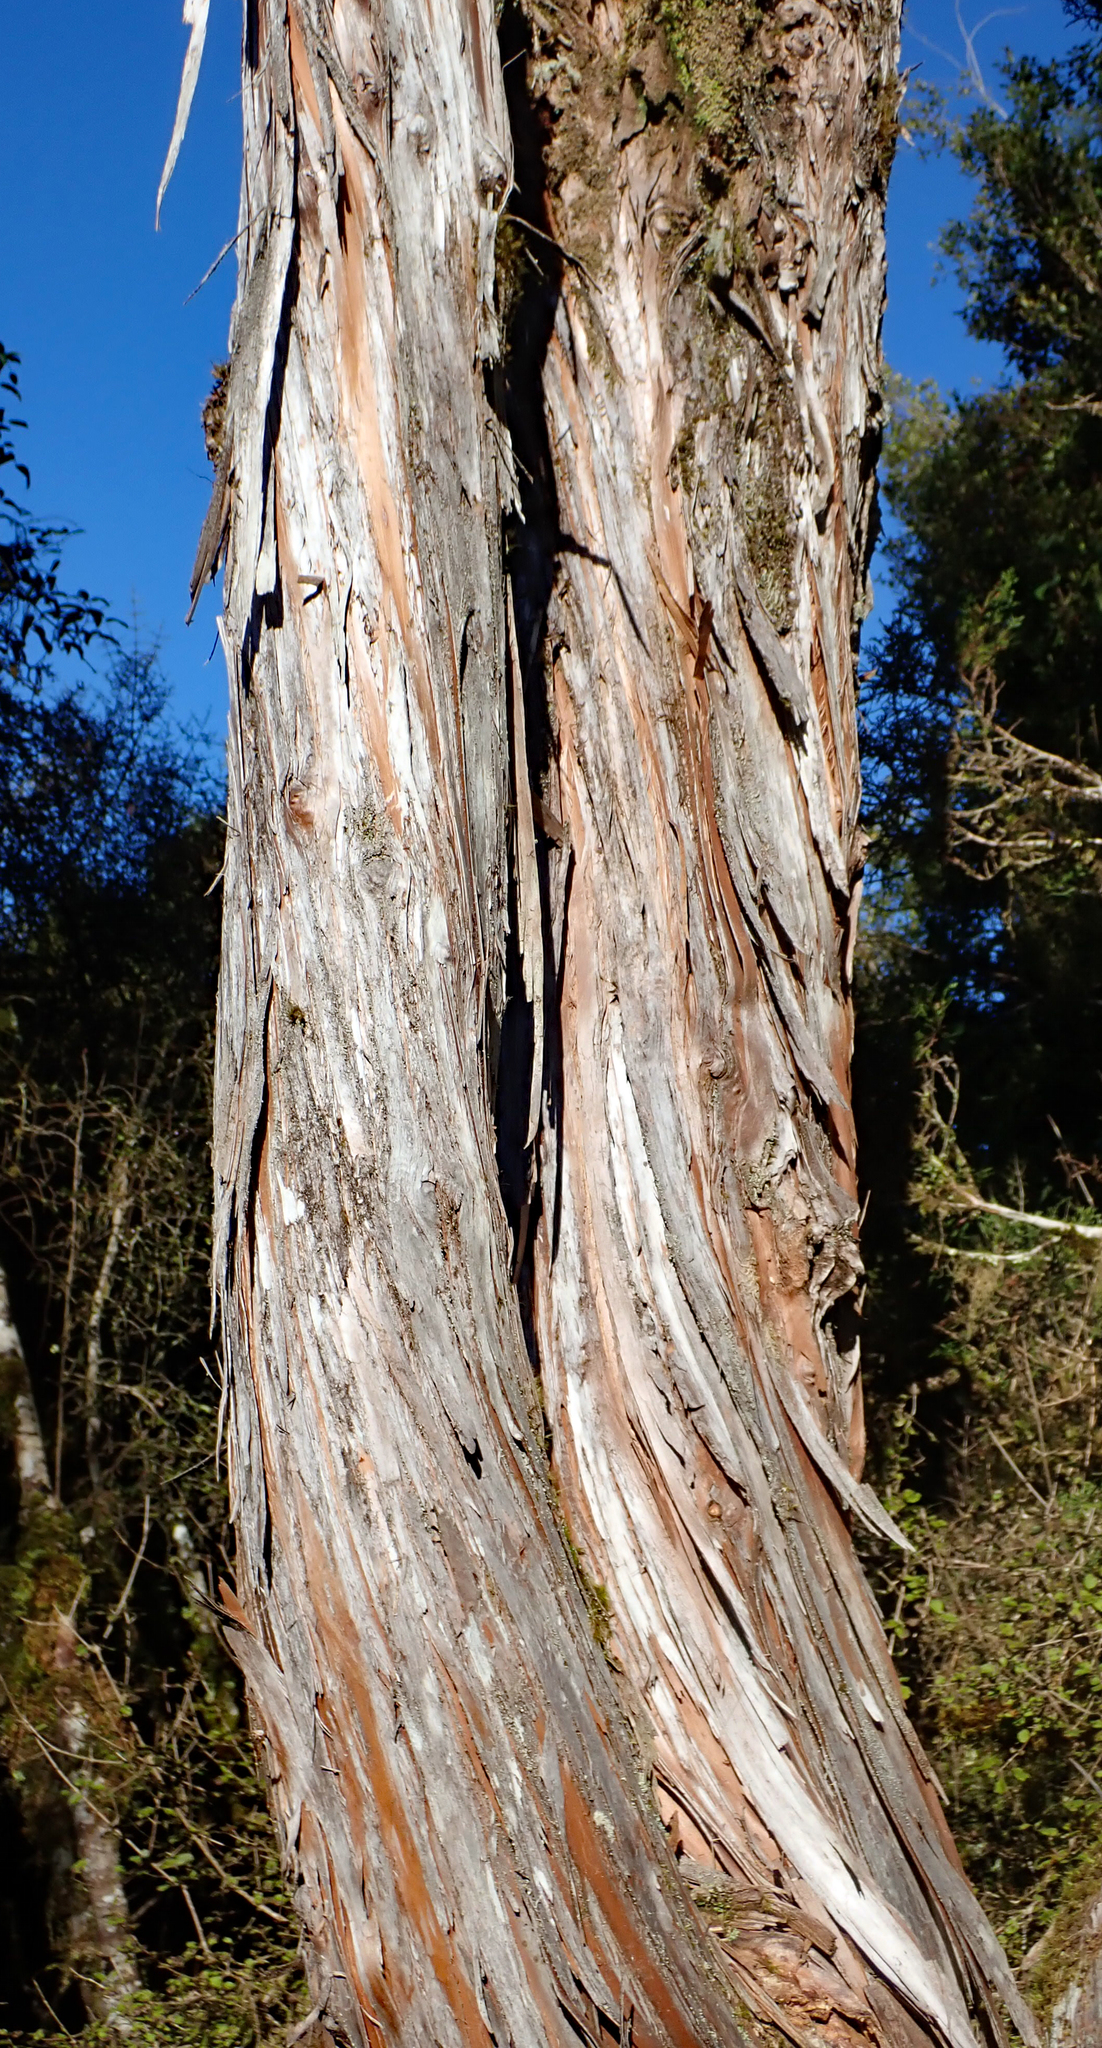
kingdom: Plantae
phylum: Tracheophyta
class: Pinopsida
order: Pinales
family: Cupressaceae
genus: Libocedrus
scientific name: Libocedrus bidwillii
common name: Cedar
